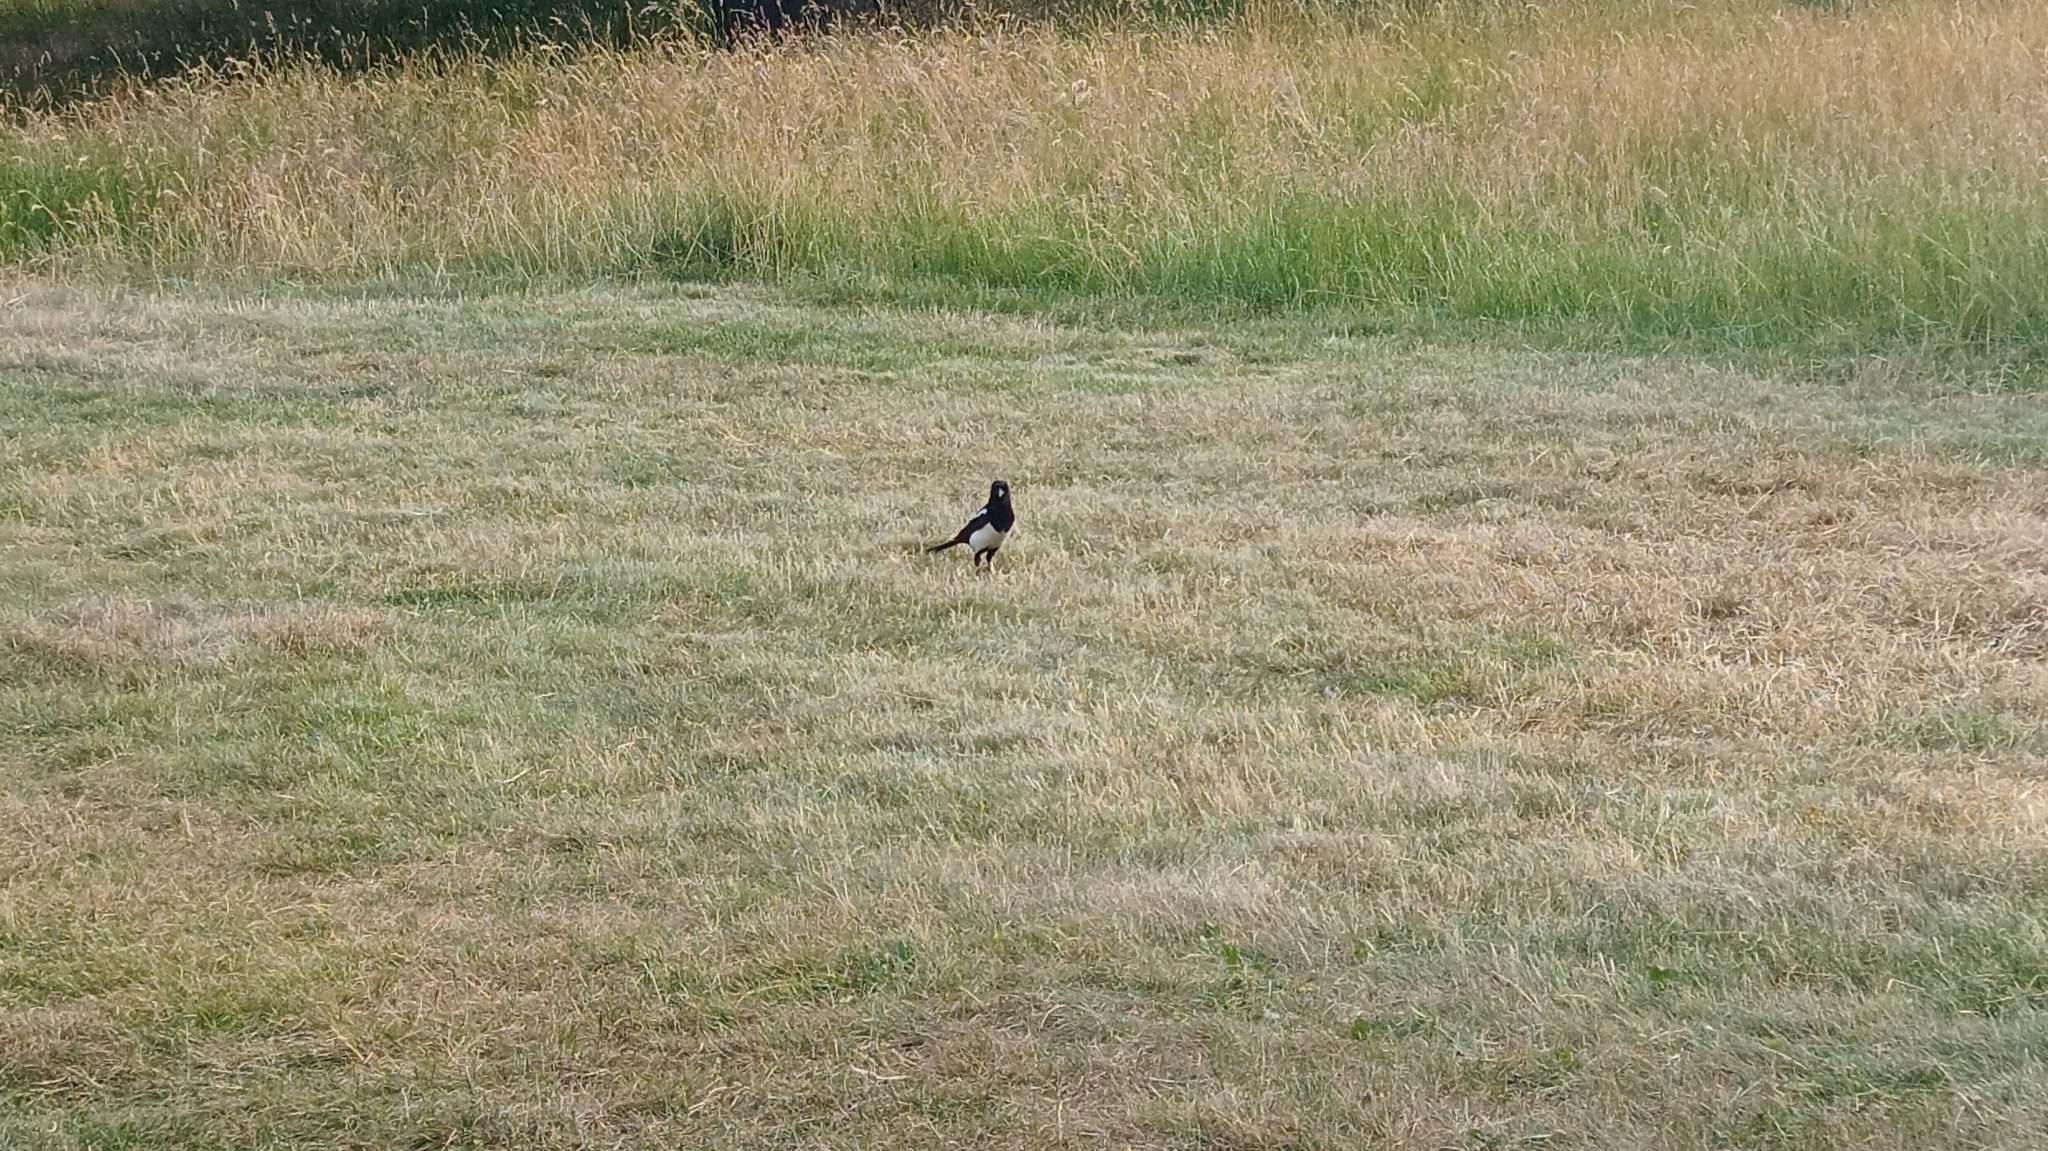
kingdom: Animalia
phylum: Chordata
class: Aves
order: Passeriformes
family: Corvidae
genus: Pica
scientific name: Pica pica
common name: Eurasian magpie
